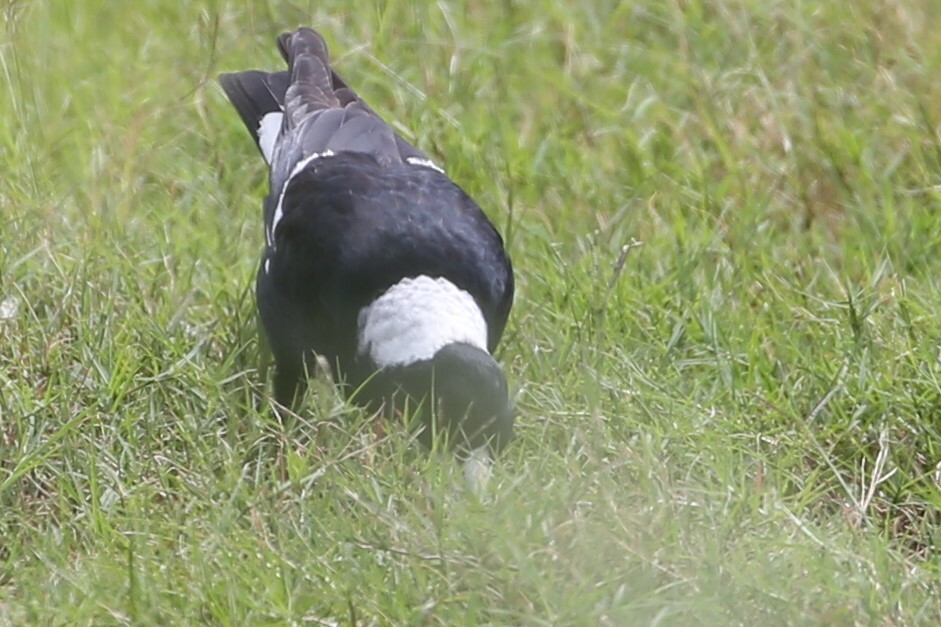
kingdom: Animalia
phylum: Chordata
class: Aves
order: Passeriformes
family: Cracticidae
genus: Gymnorhina
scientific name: Gymnorhina tibicen
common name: Australian magpie
